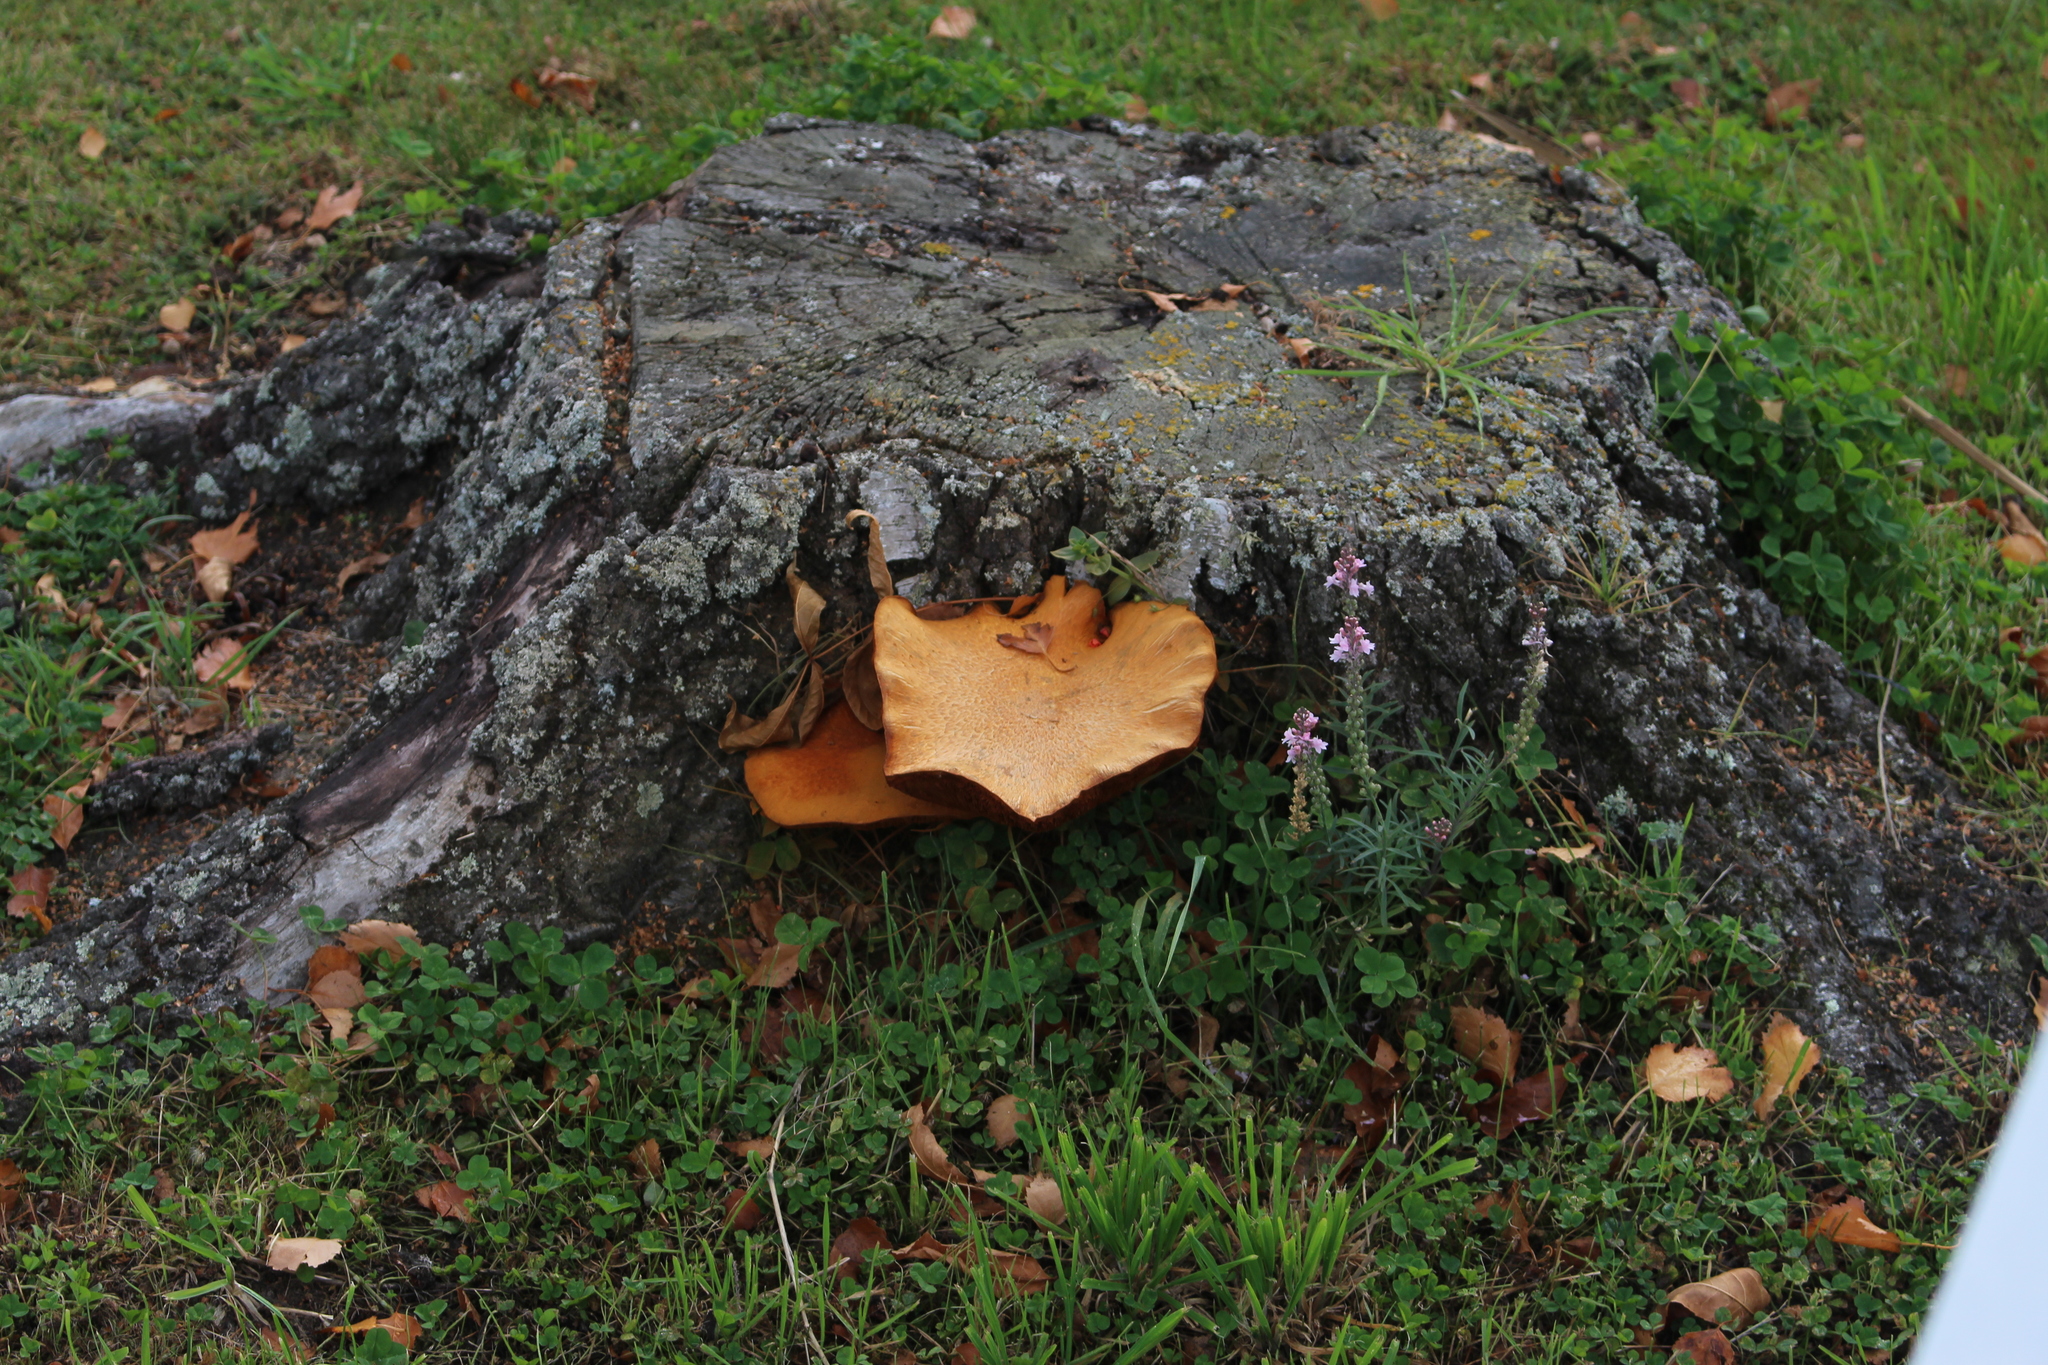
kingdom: Fungi
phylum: Basidiomycota
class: Agaricomycetes
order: Agaricales
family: Hymenogastraceae
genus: Gymnopilus
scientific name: Gymnopilus junonius
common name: Spectacular rustgill
